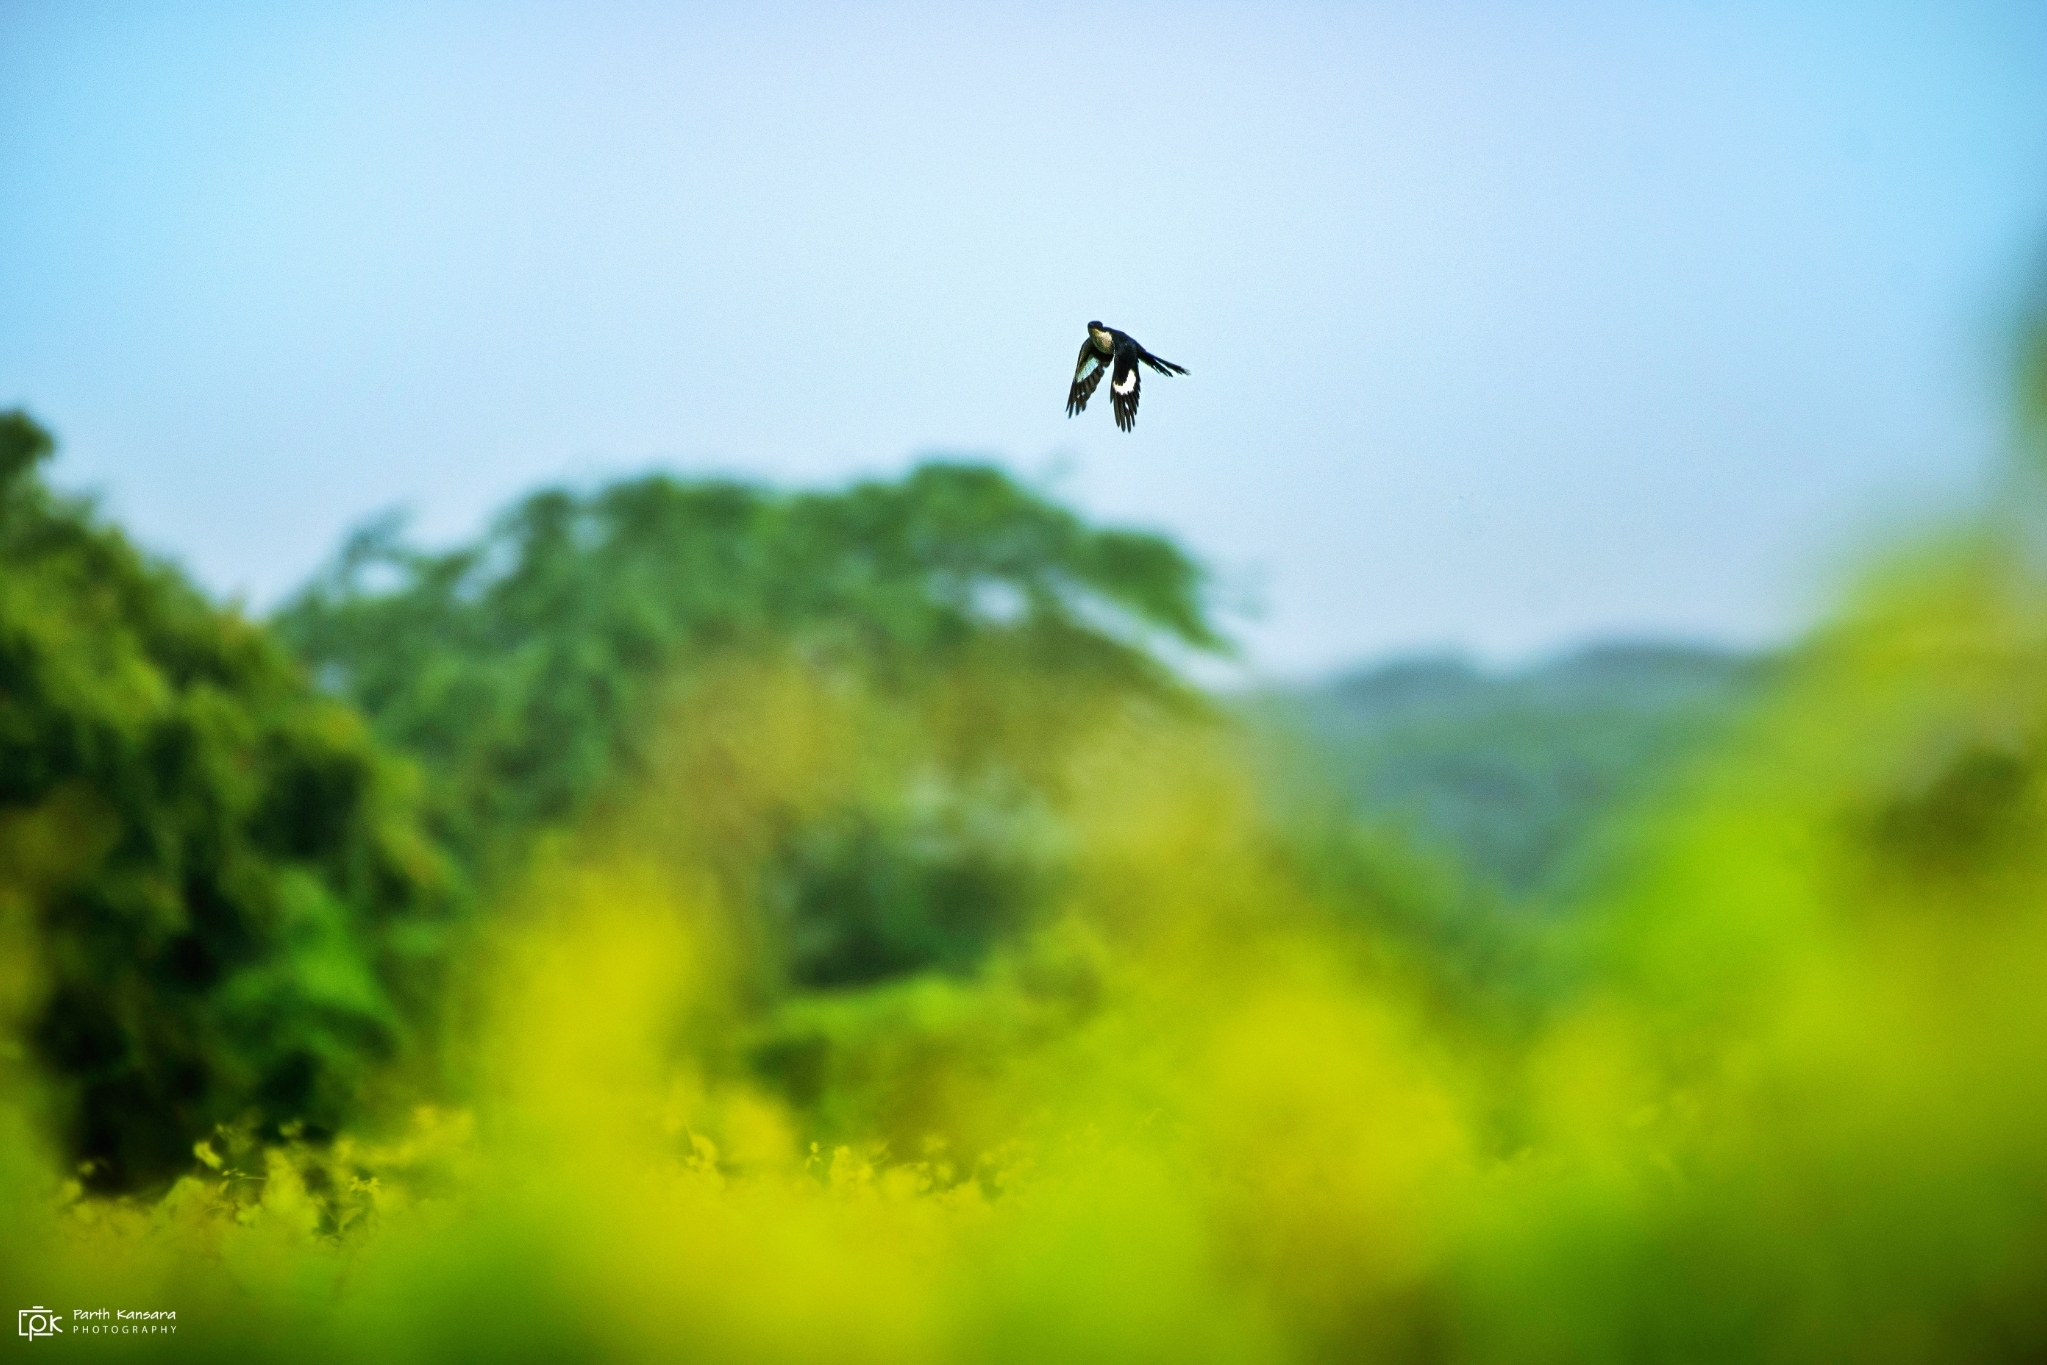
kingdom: Animalia
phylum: Chordata
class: Aves
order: Cuculiformes
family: Cuculidae
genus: Clamator
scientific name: Clamator jacobinus
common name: Jacobin cuckoo
